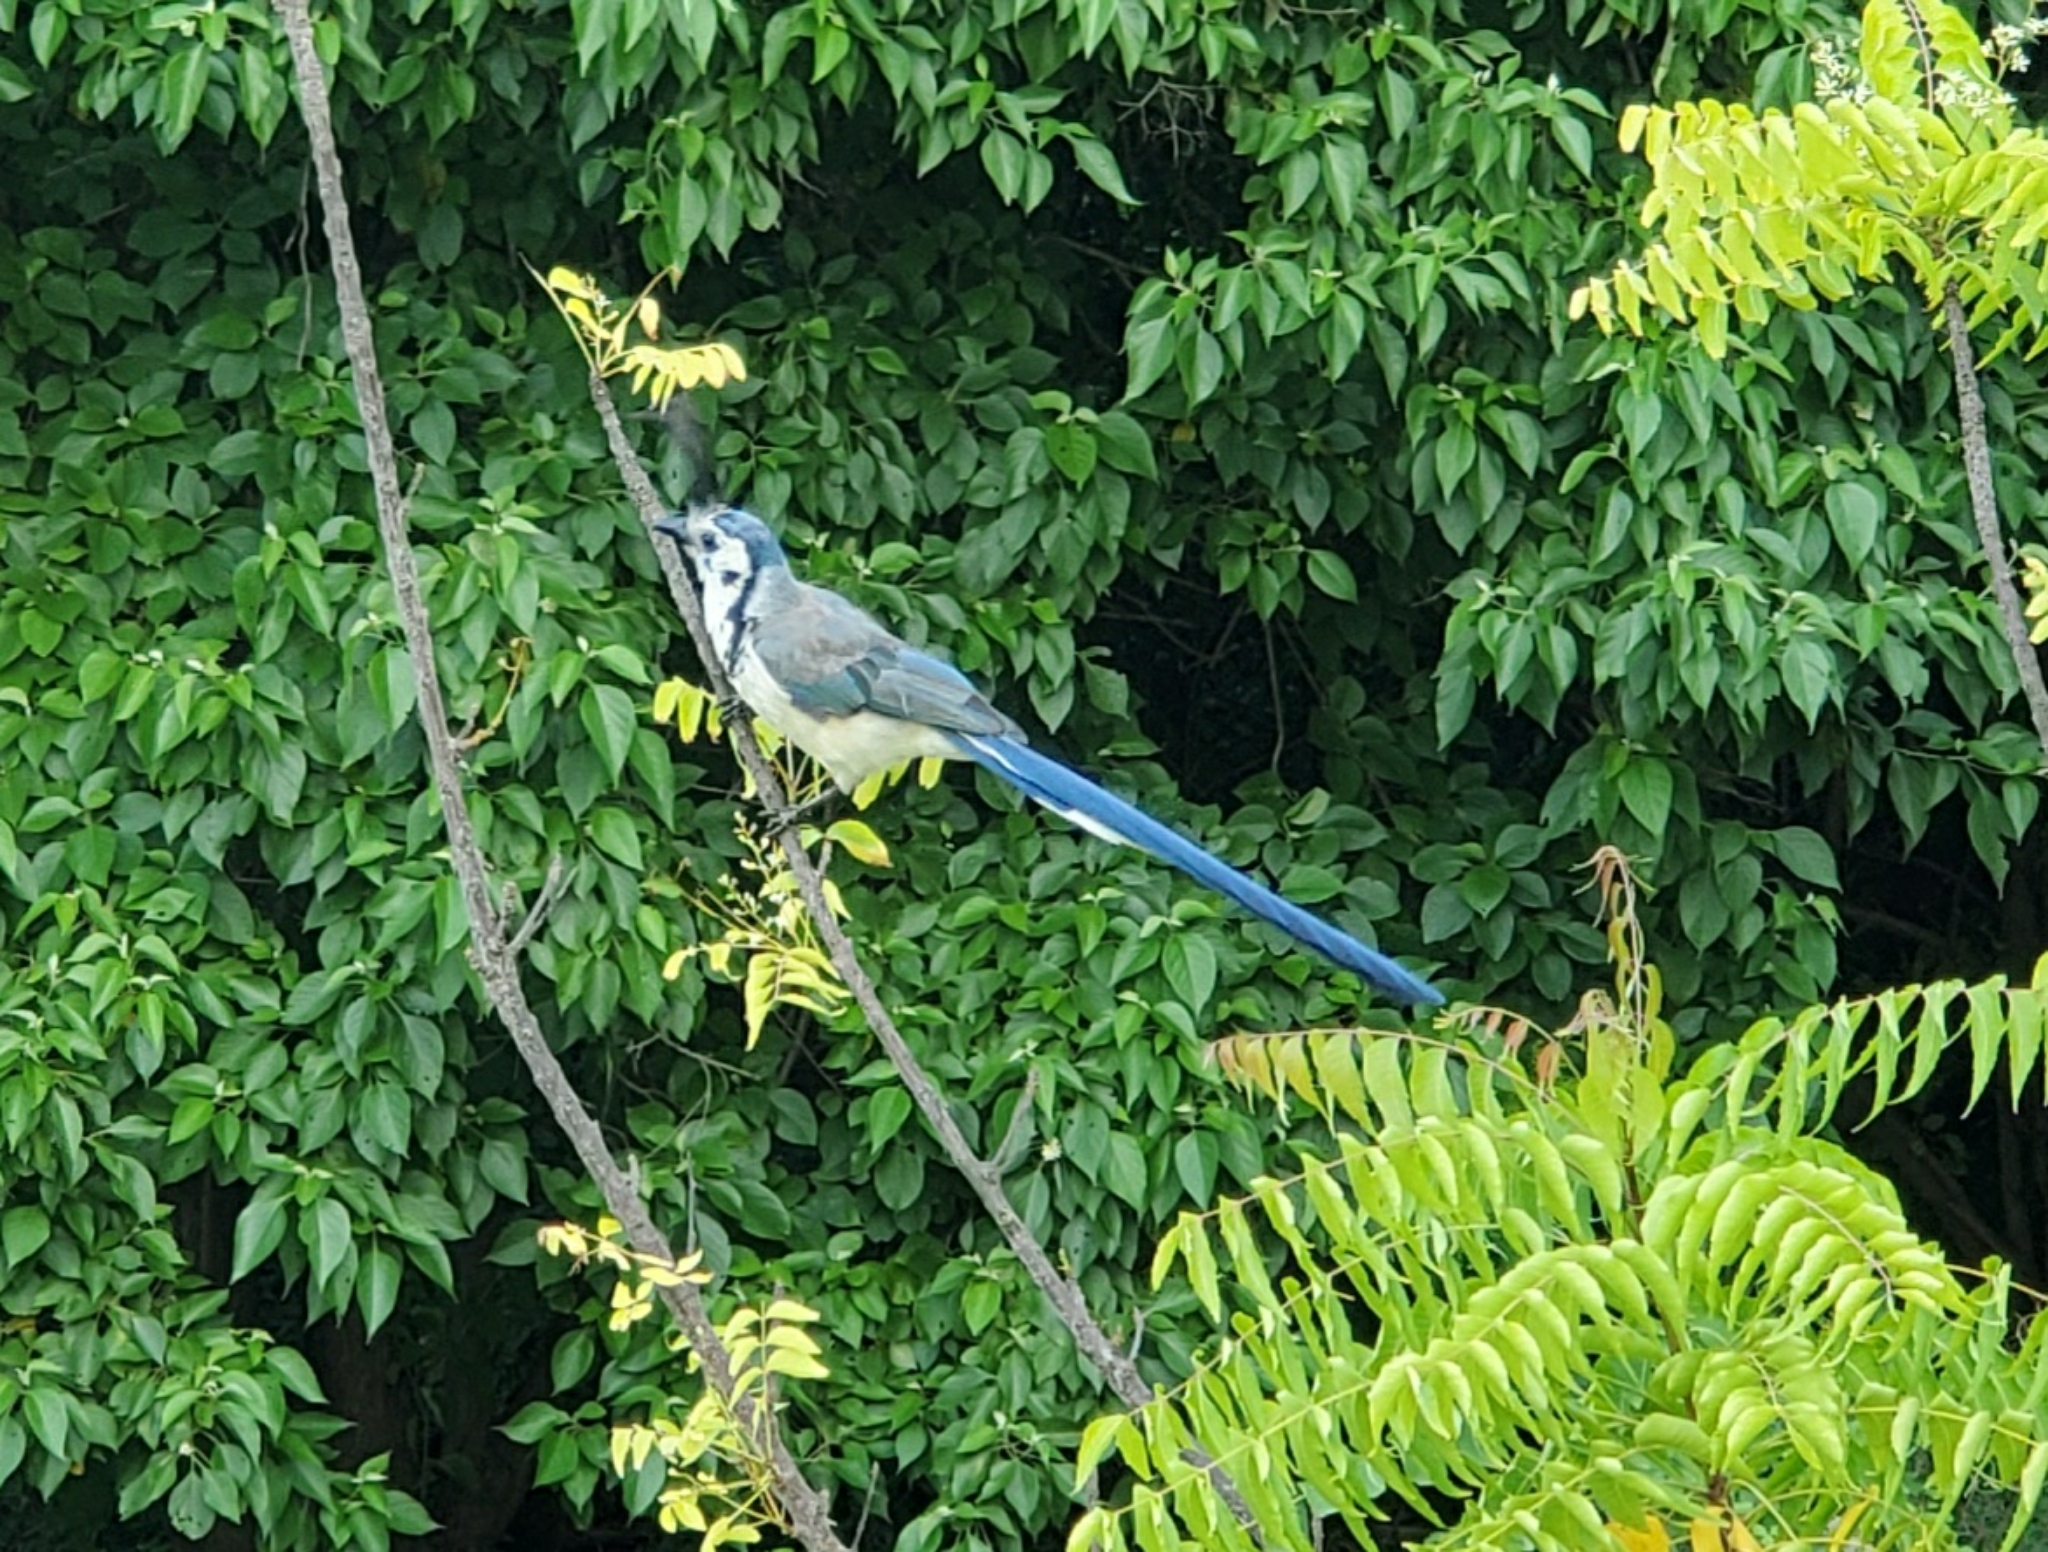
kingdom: Animalia
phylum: Chordata
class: Aves
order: Passeriformes
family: Corvidae
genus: Calocitta
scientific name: Calocitta formosa
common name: White-throated magpie-jay
